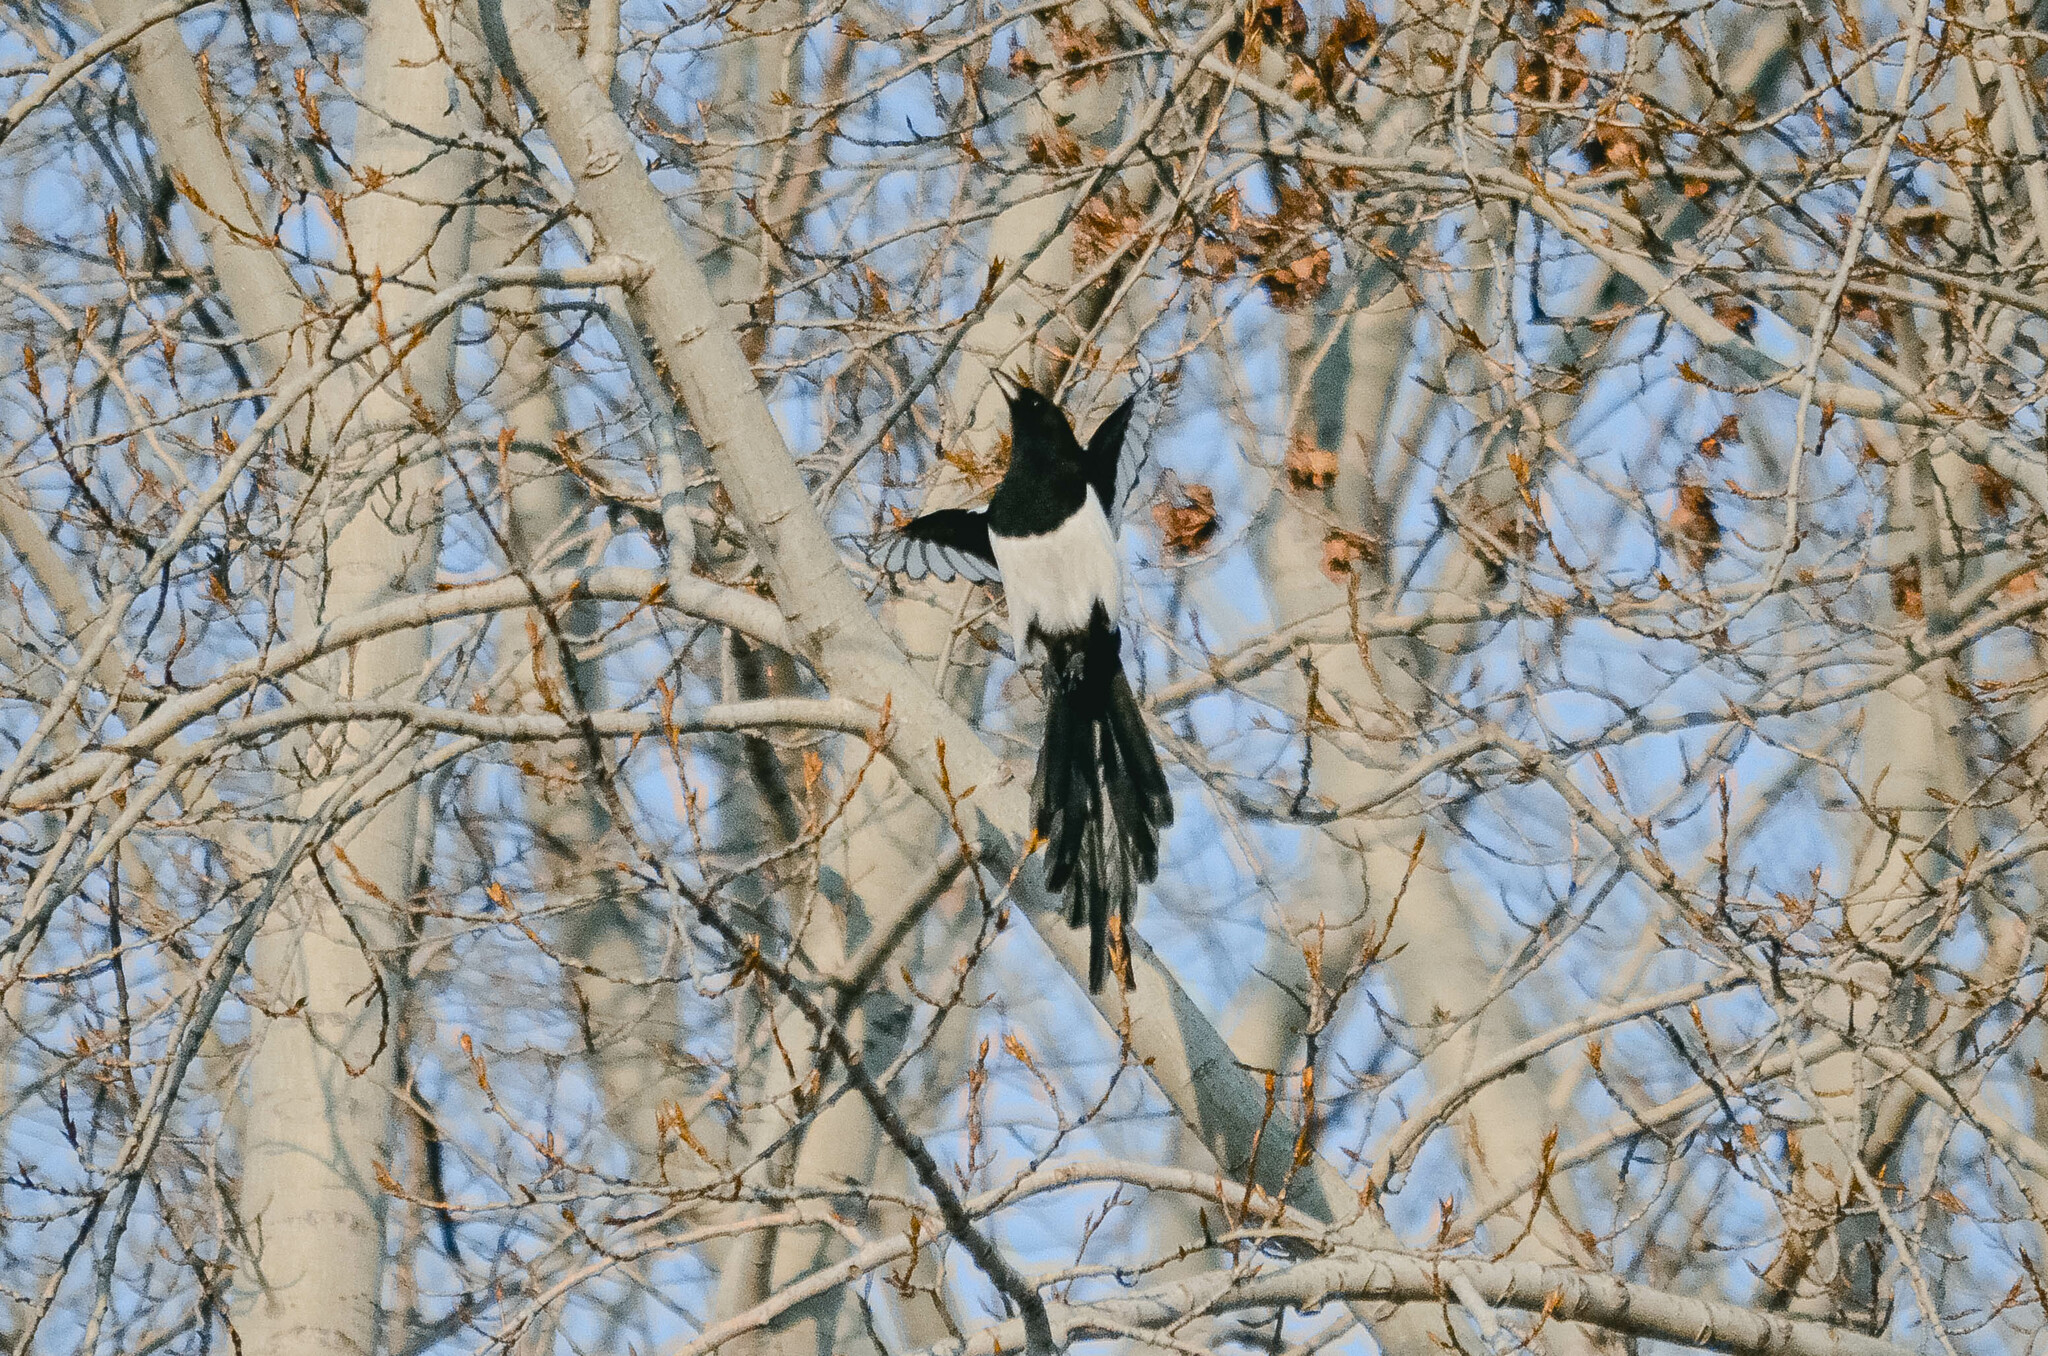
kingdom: Animalia
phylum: Chordata
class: Aves
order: Passeriformes
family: Corvidae
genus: Pica
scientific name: Pica pica
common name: Eurasian magpie
